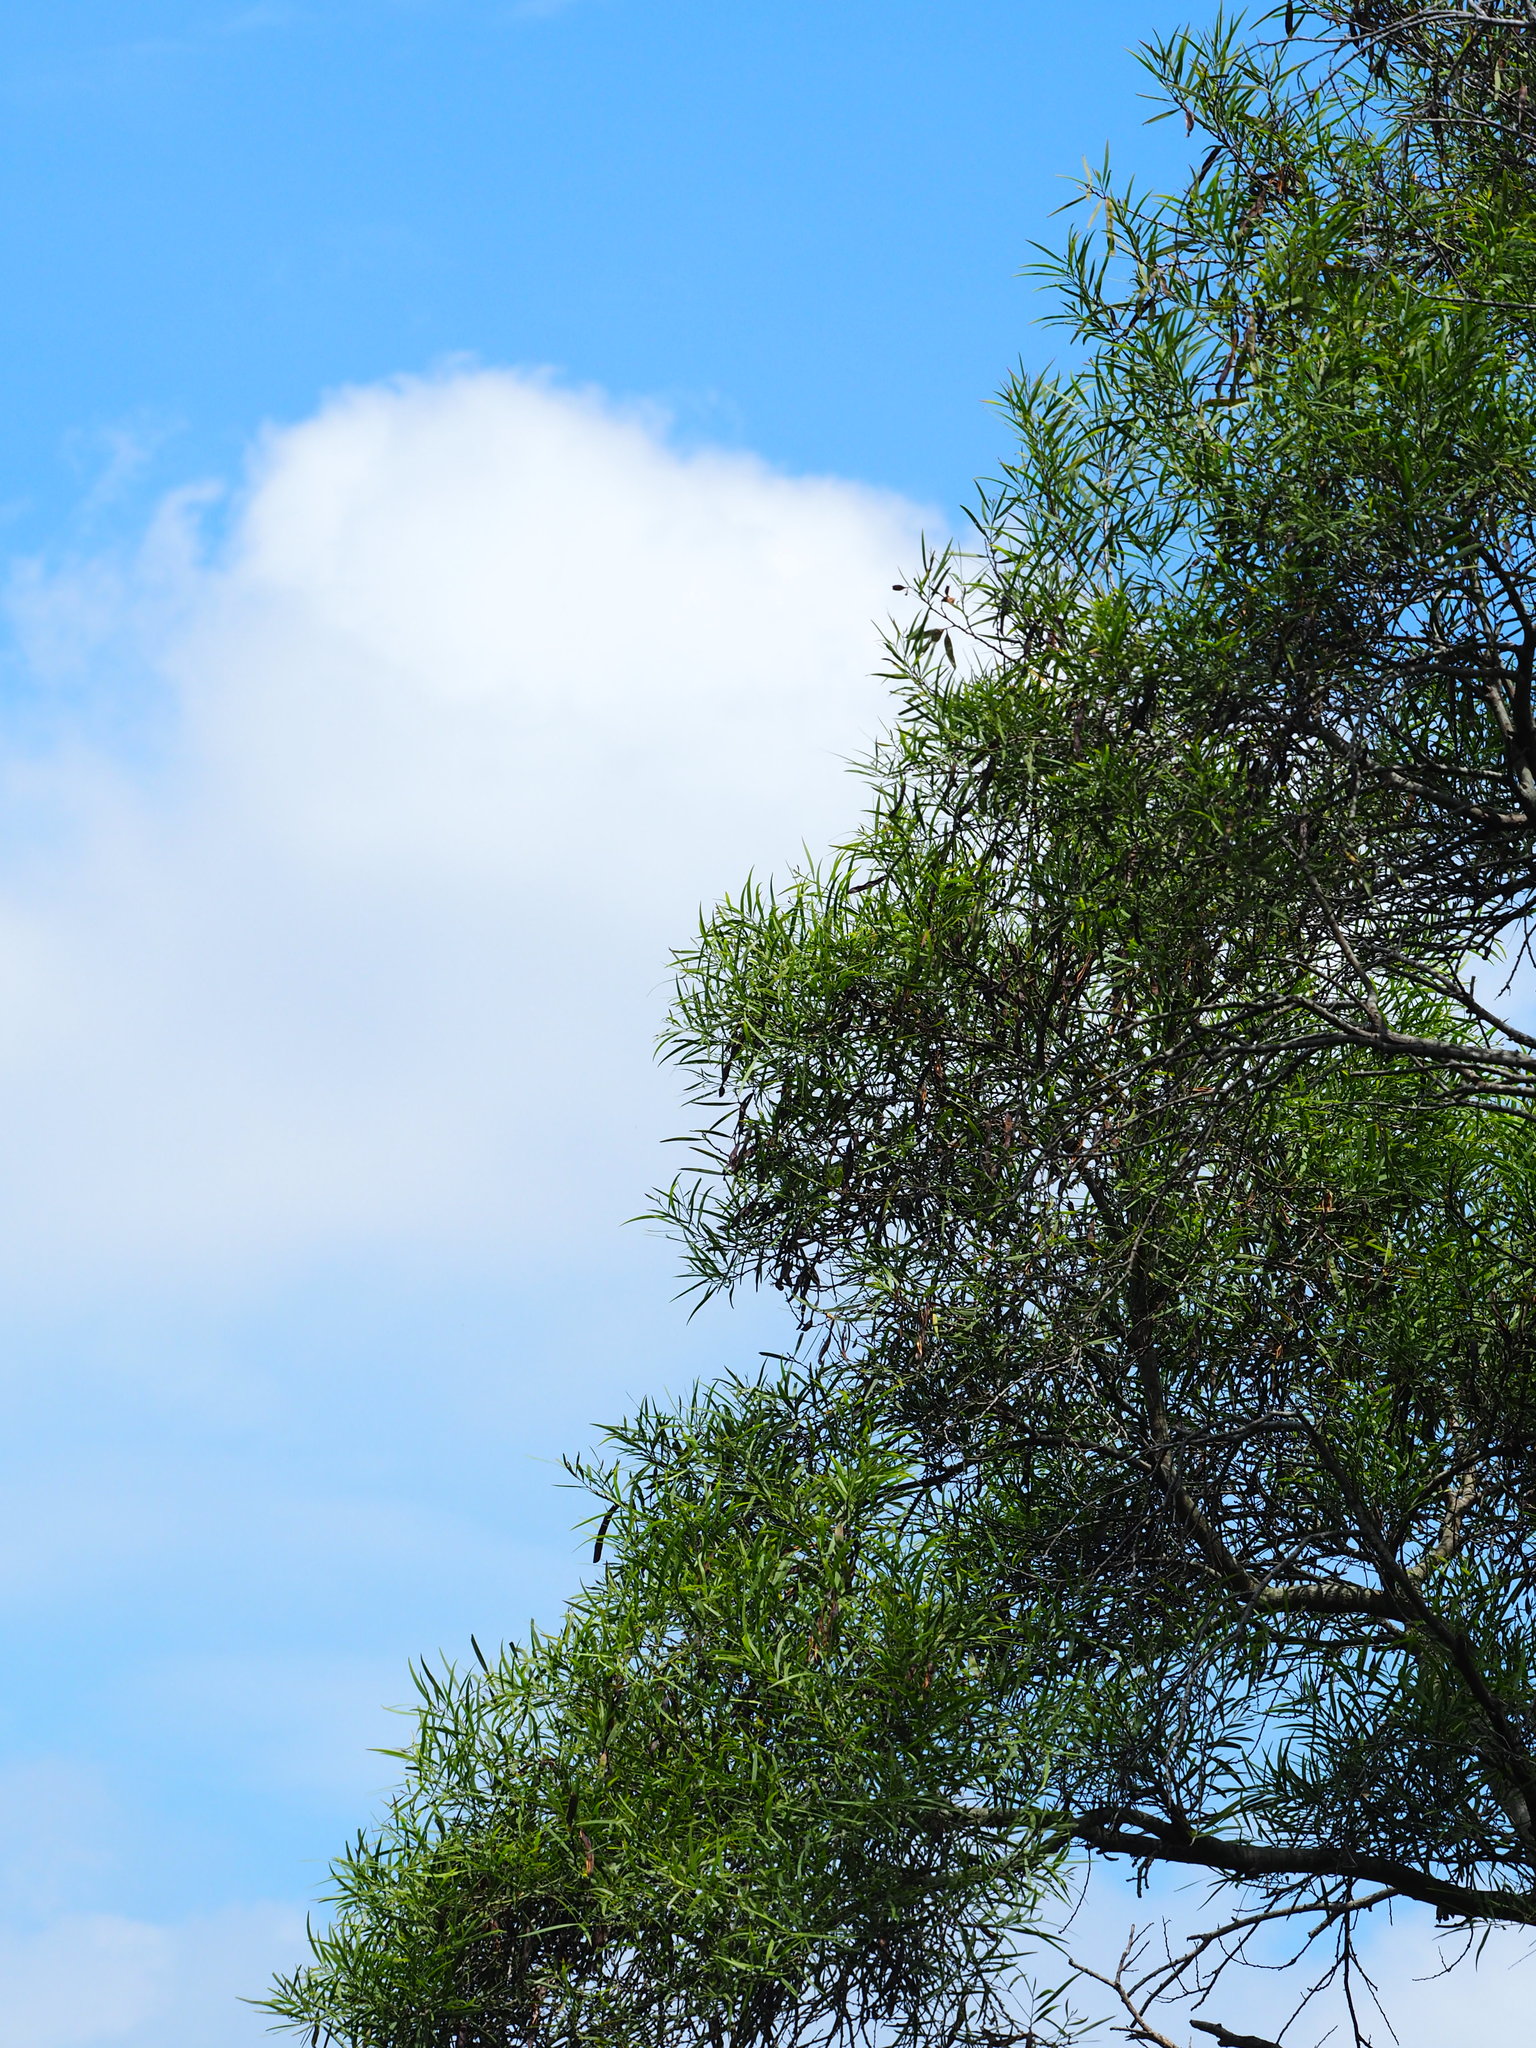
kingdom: Plantae
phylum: Tracheophyta
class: Magnoliopsida
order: Fabales
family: Fabaceae
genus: Acacia
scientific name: Acacia confusa
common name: Formosan koa
